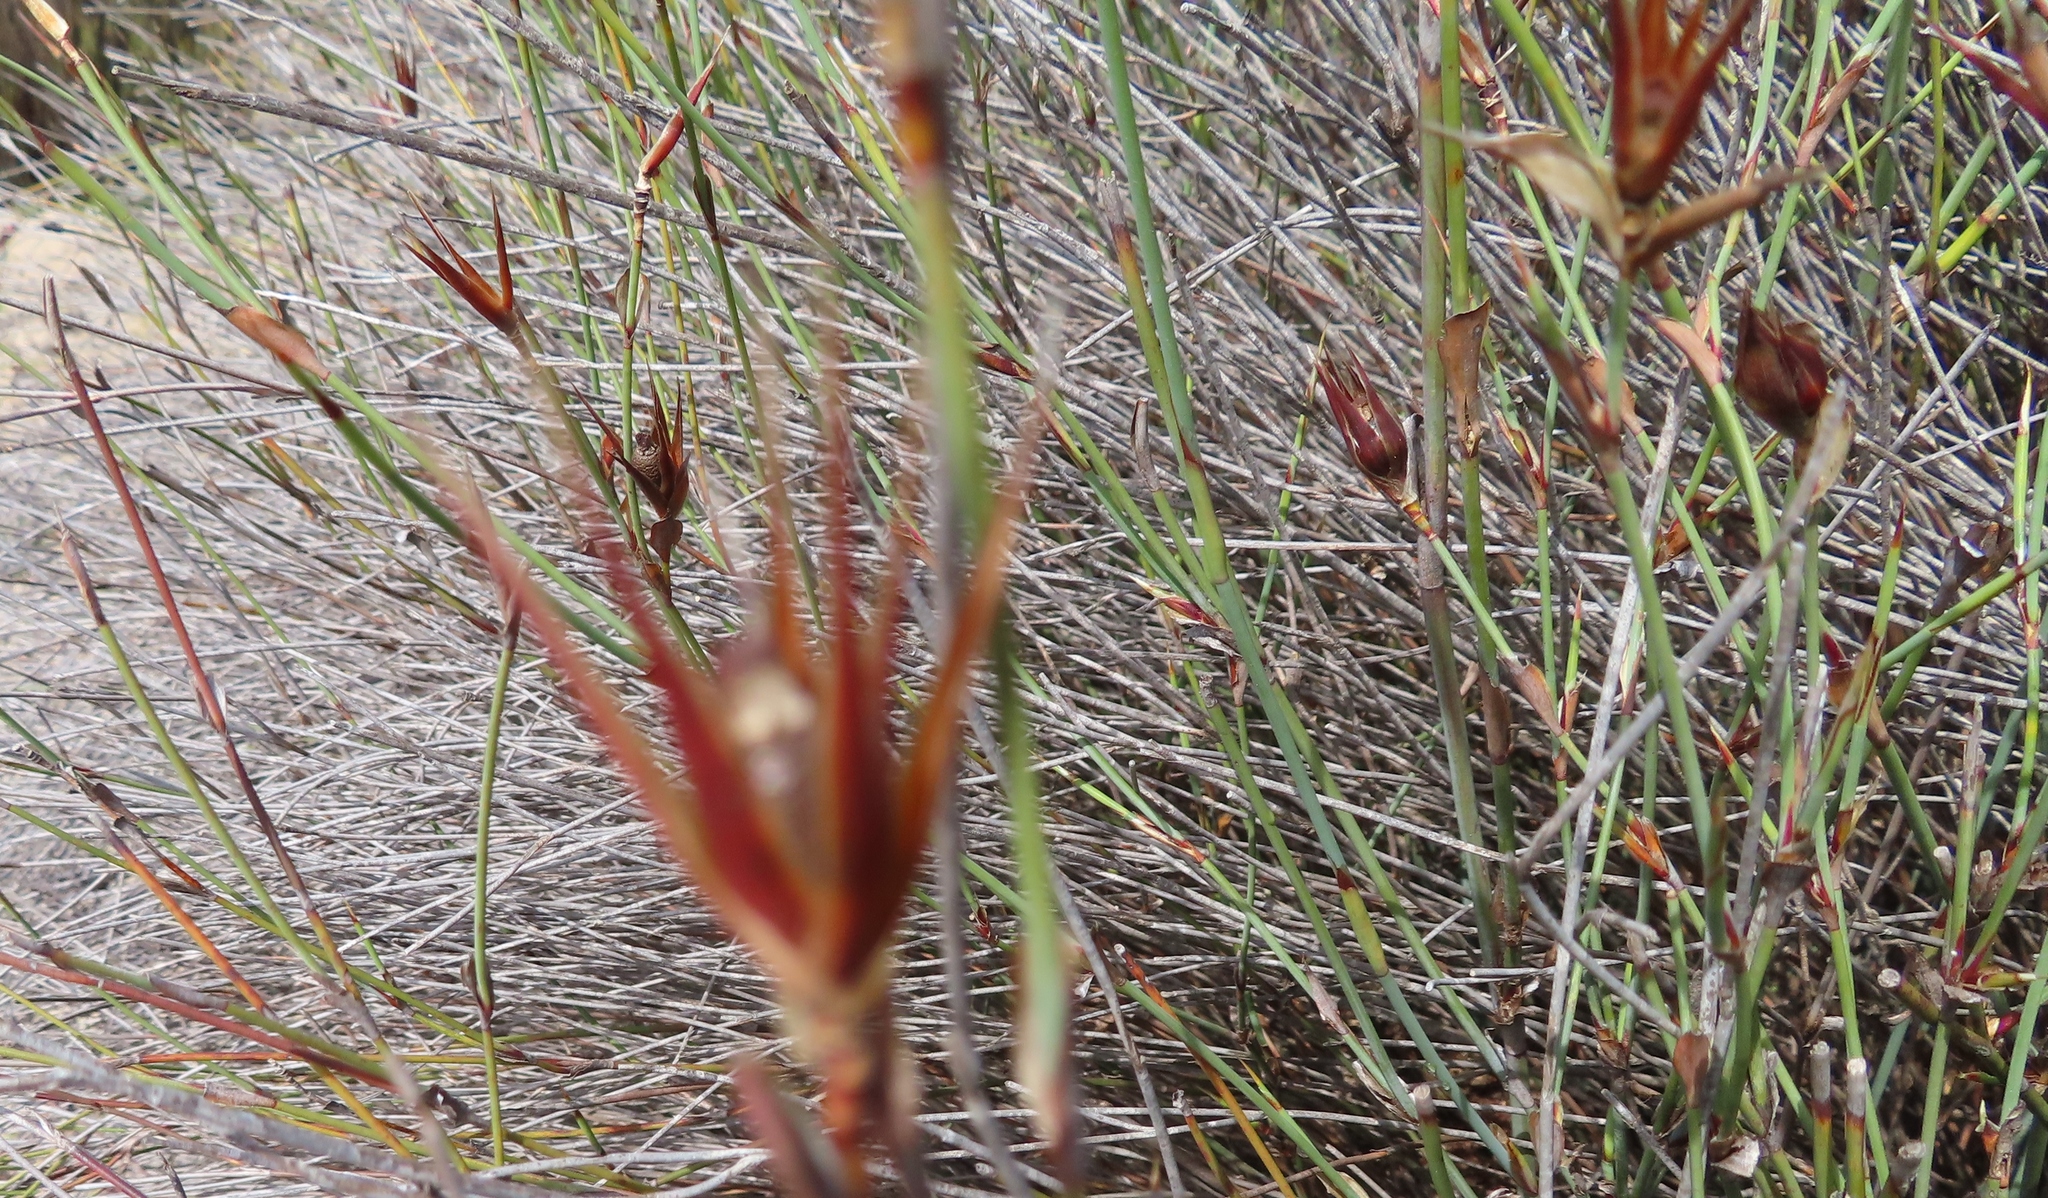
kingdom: Plantae
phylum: Tracheophyta
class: Liliopsida
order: Poales
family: Restionaceae
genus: Willdenowia
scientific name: Willdenowia incurvata
